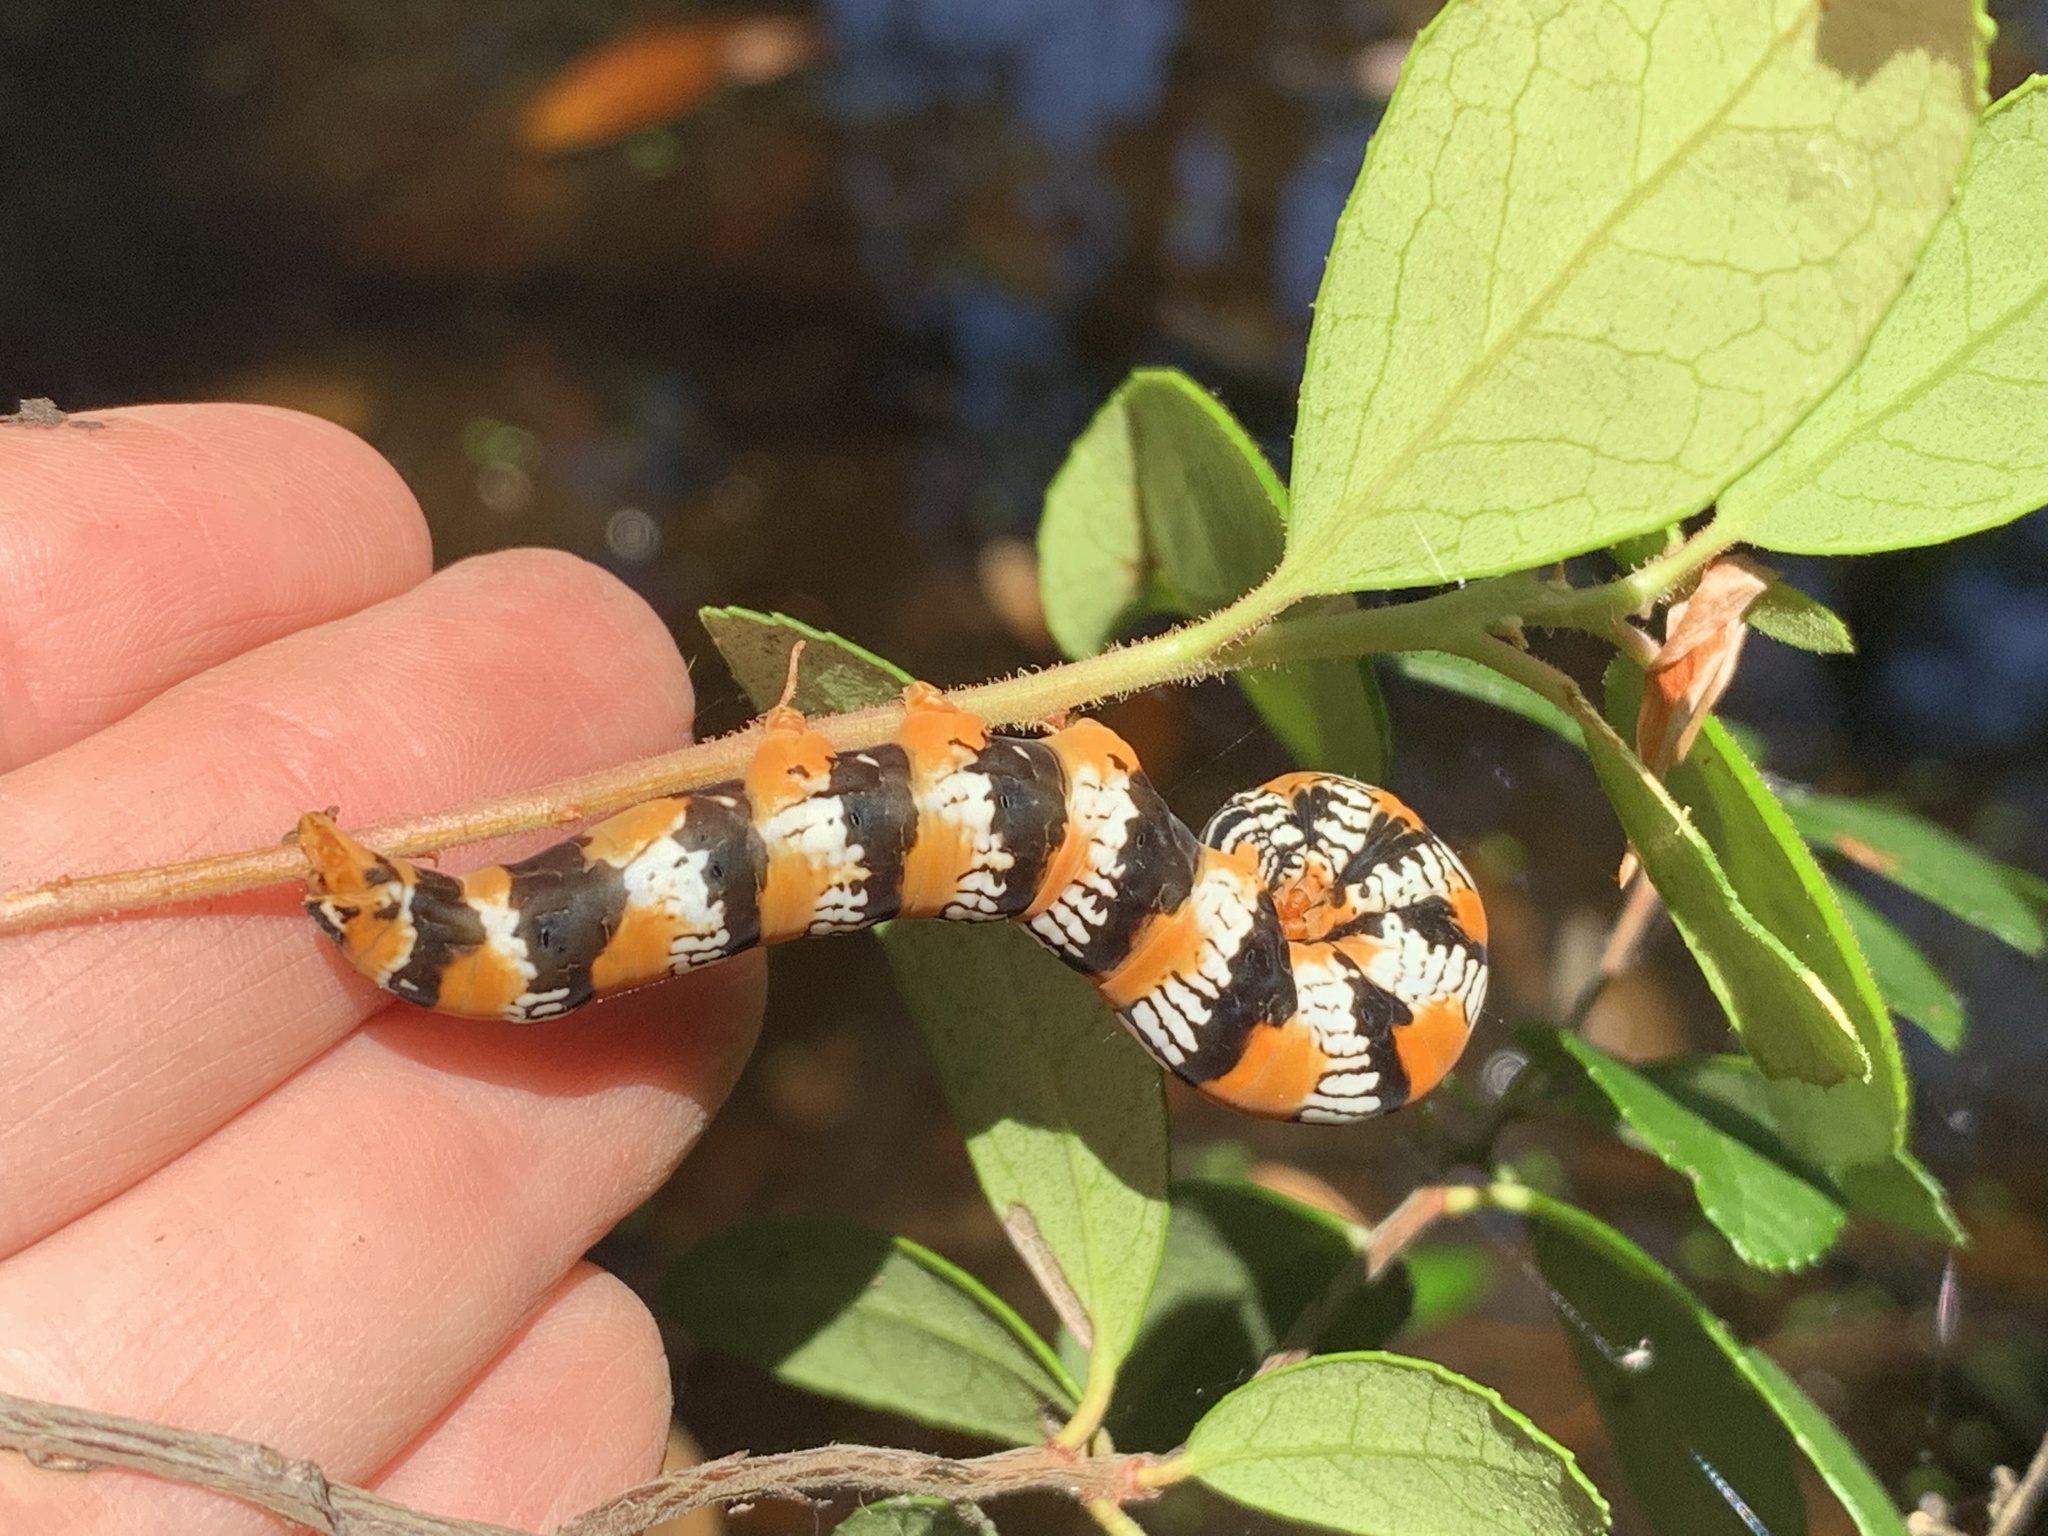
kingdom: Animalia
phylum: Arthropoda
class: Insecta
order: Lepidoptera
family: Erebidae
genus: Zale
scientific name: Zale perculta
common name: Okefenokee zale moth
